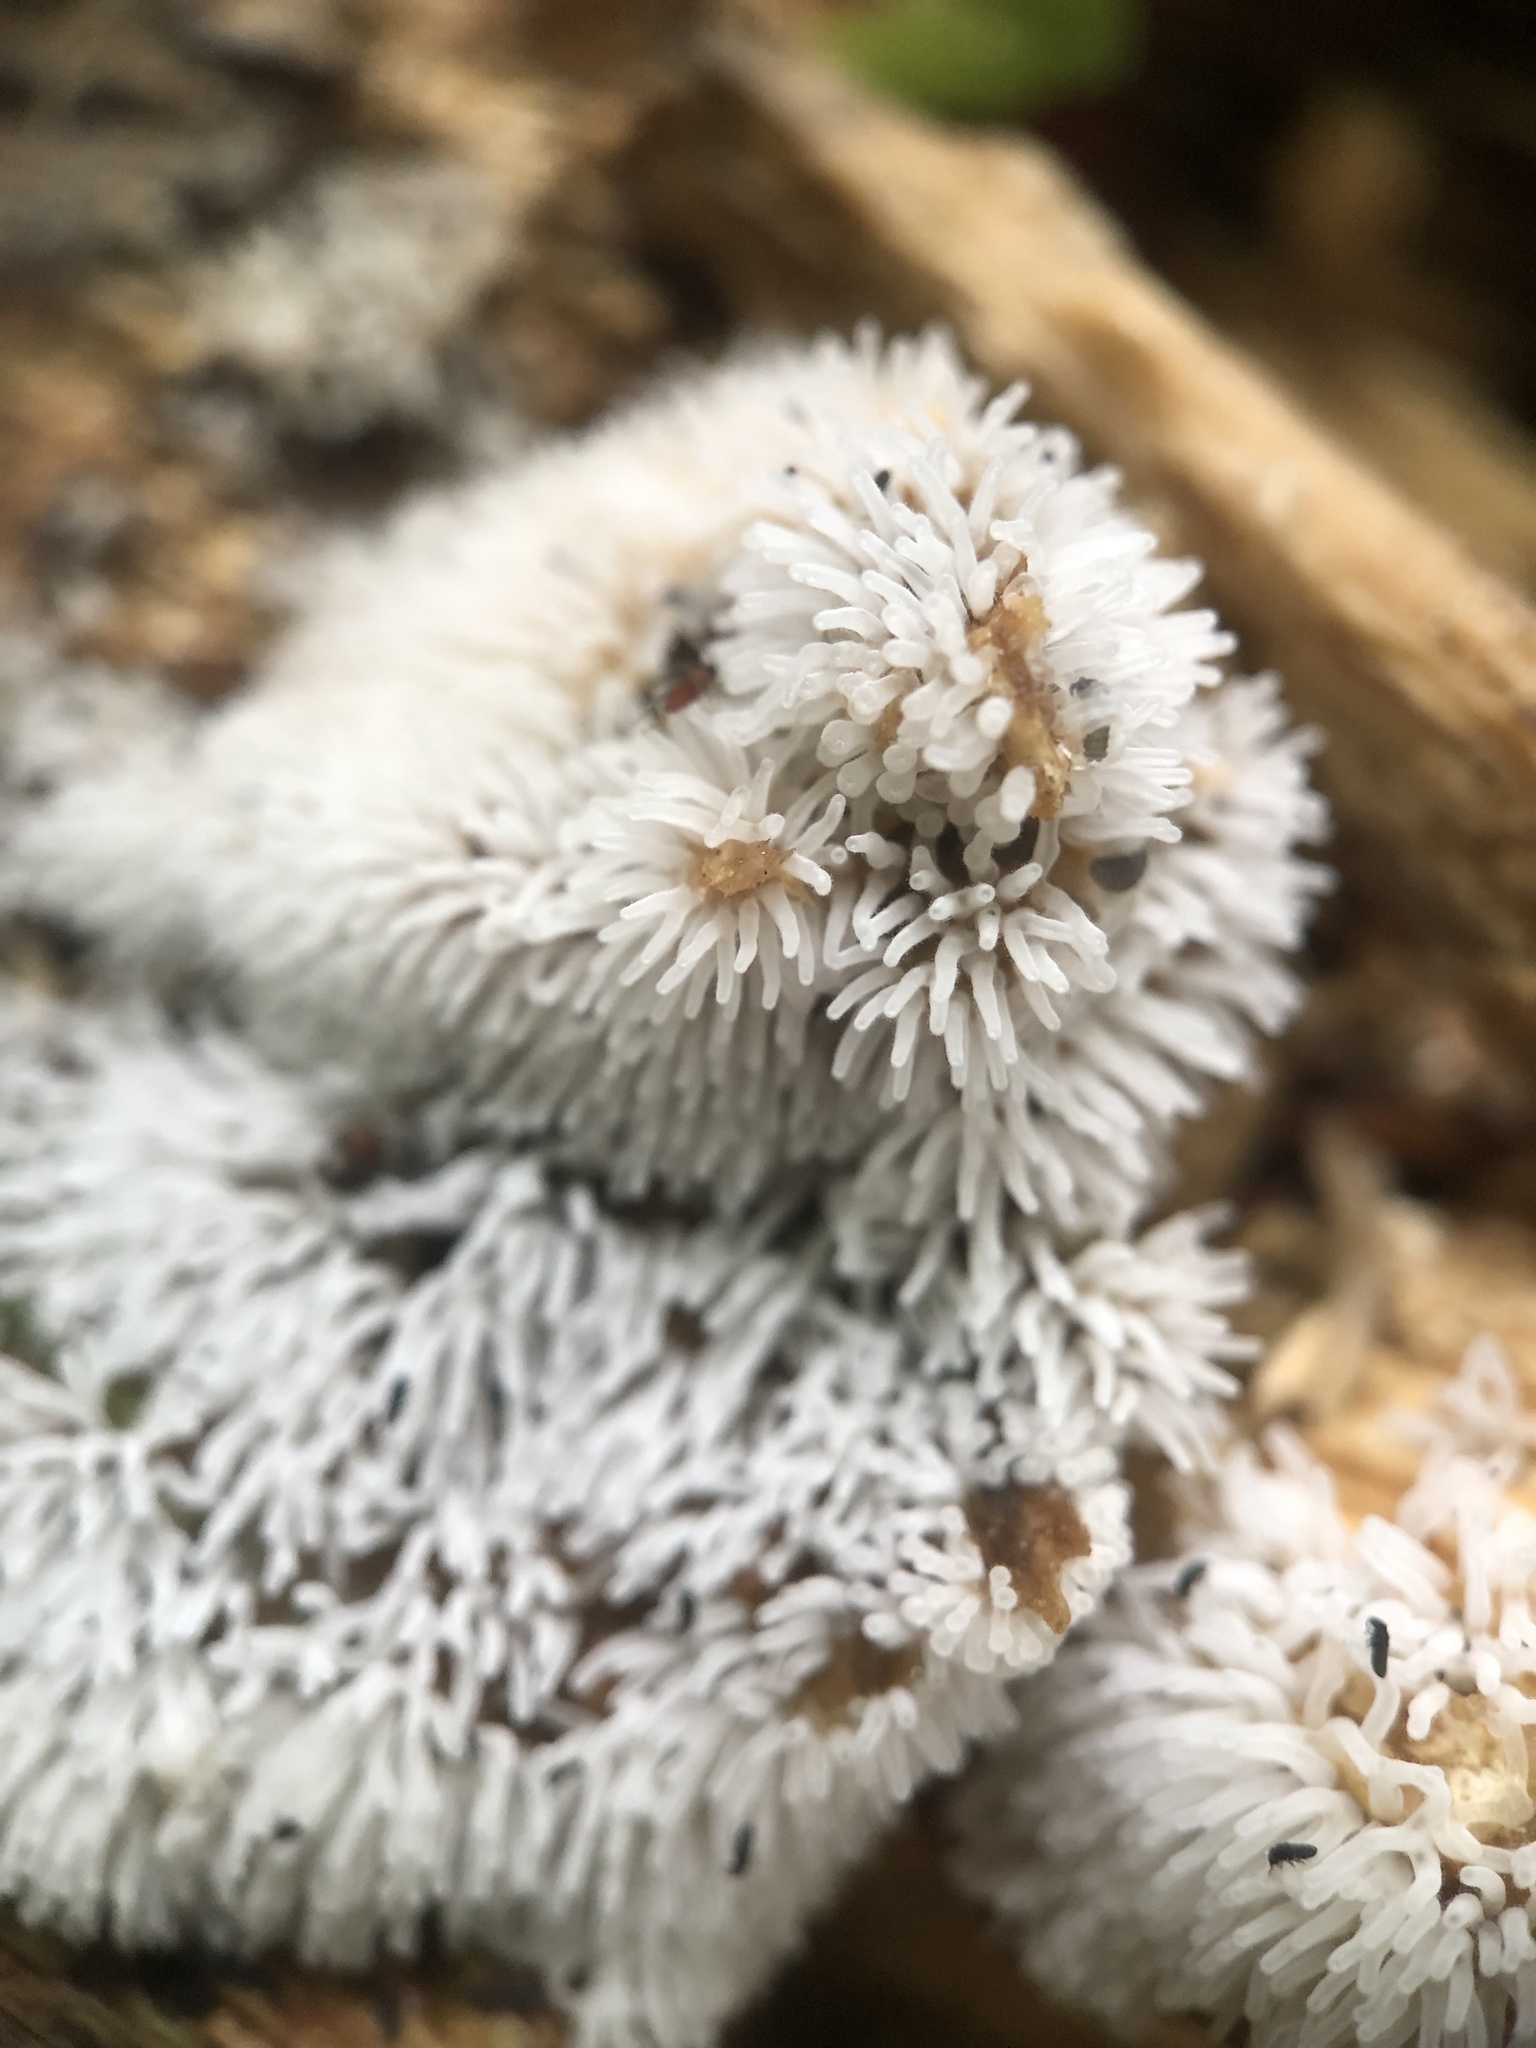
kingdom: Protozoa
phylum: Mycetozoa
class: Protosteliomycetes
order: Ceratiomyxales
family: Ceratiomyxaceae
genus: Ceratiomyxa
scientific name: Ceratiomyxa fruticulosa
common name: Honeycomb coral slime mold
